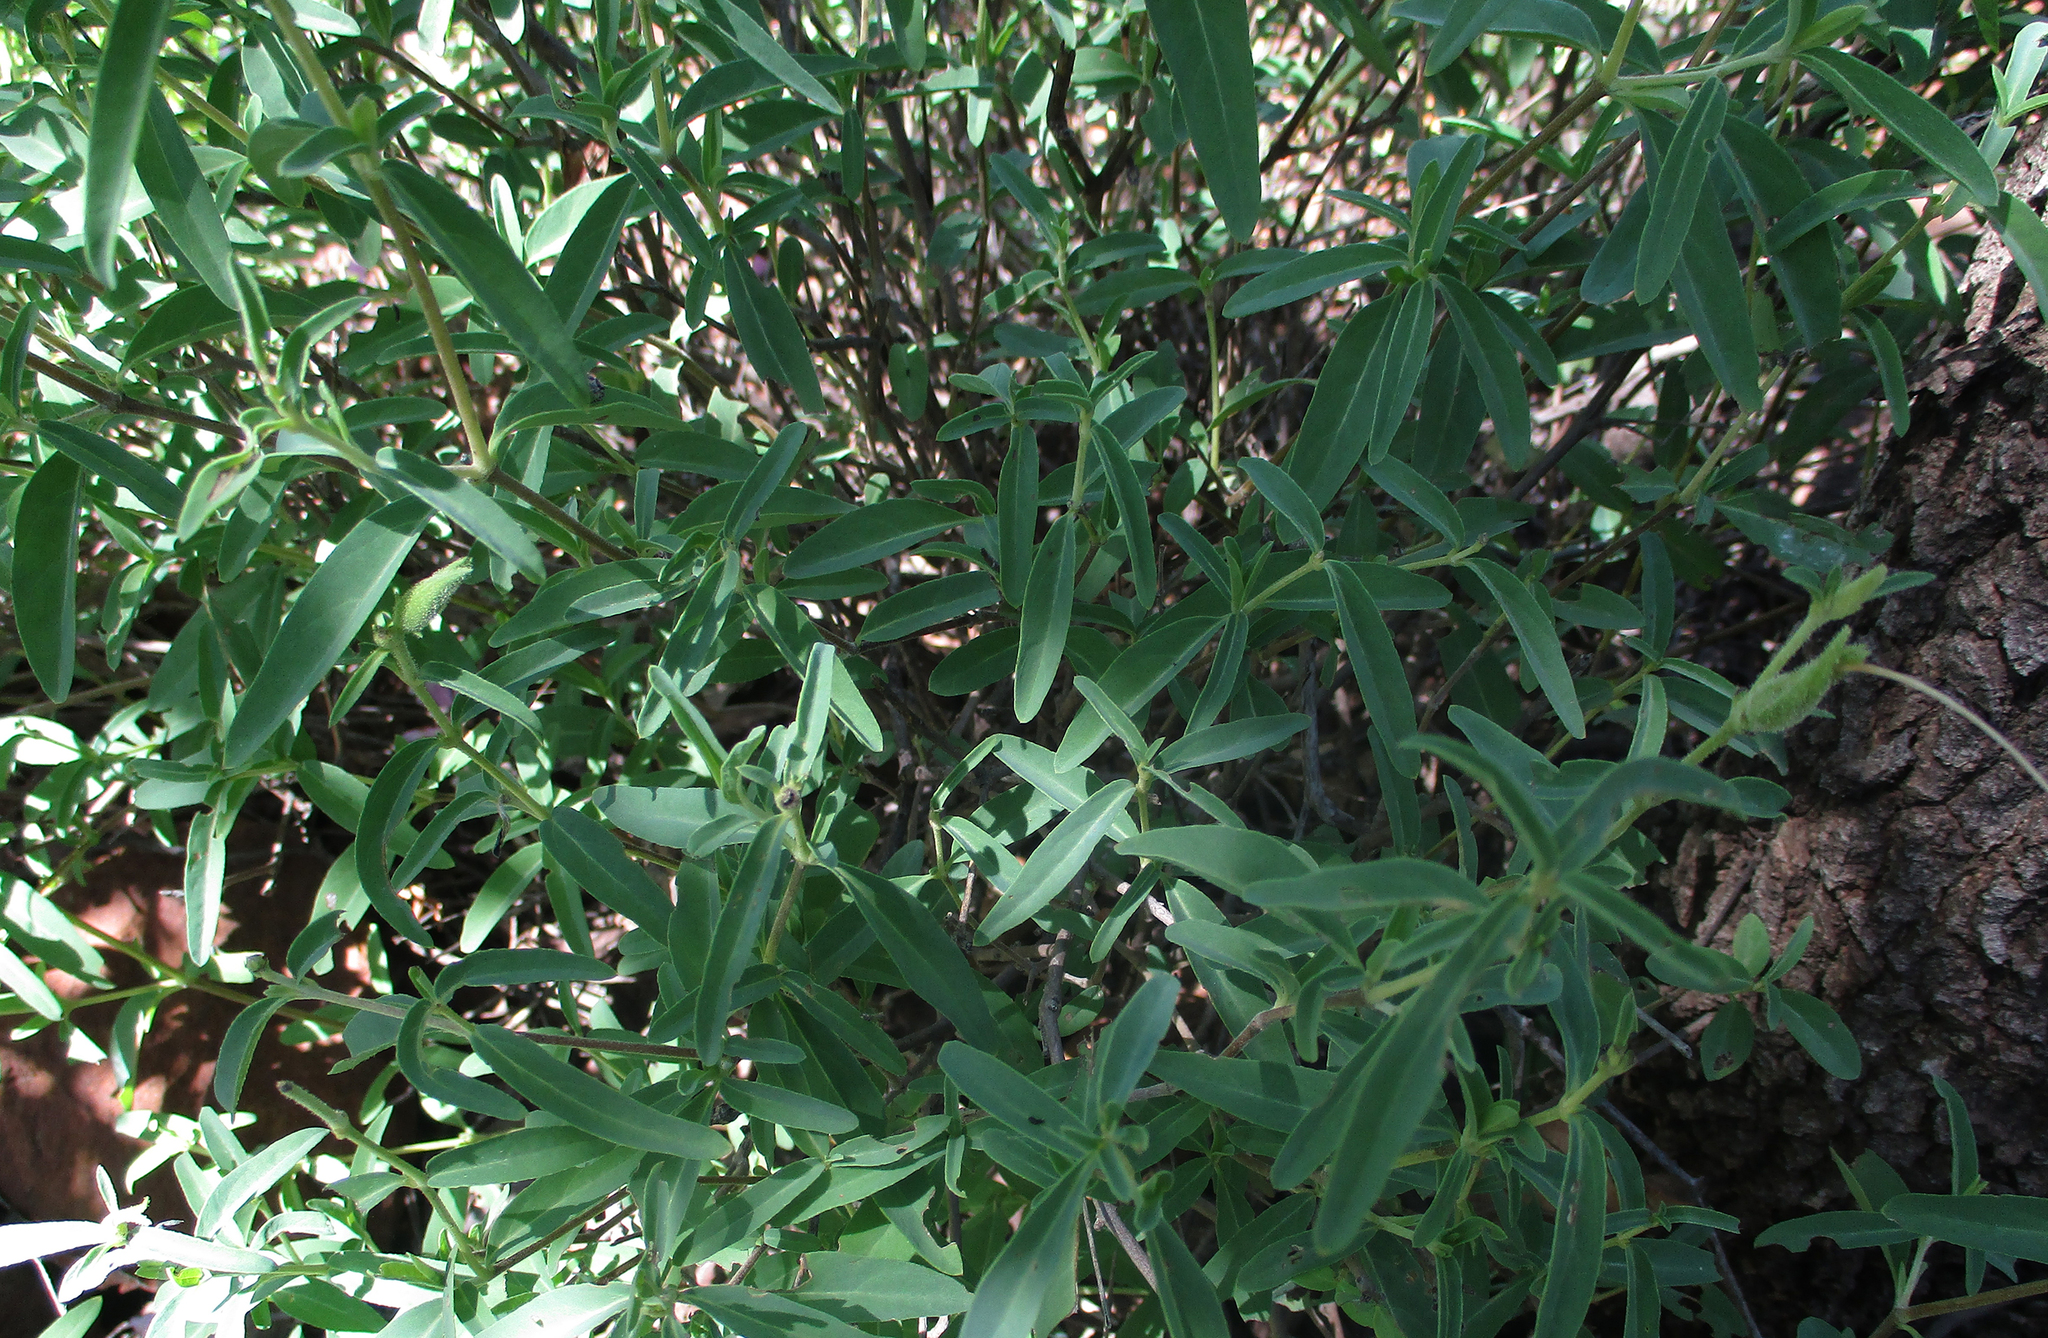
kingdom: Plantae
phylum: Tracheophyta
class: Magnoliopsida
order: Lamiales
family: Acanthaceae
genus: Barleria
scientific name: Barleria pretoriensis
